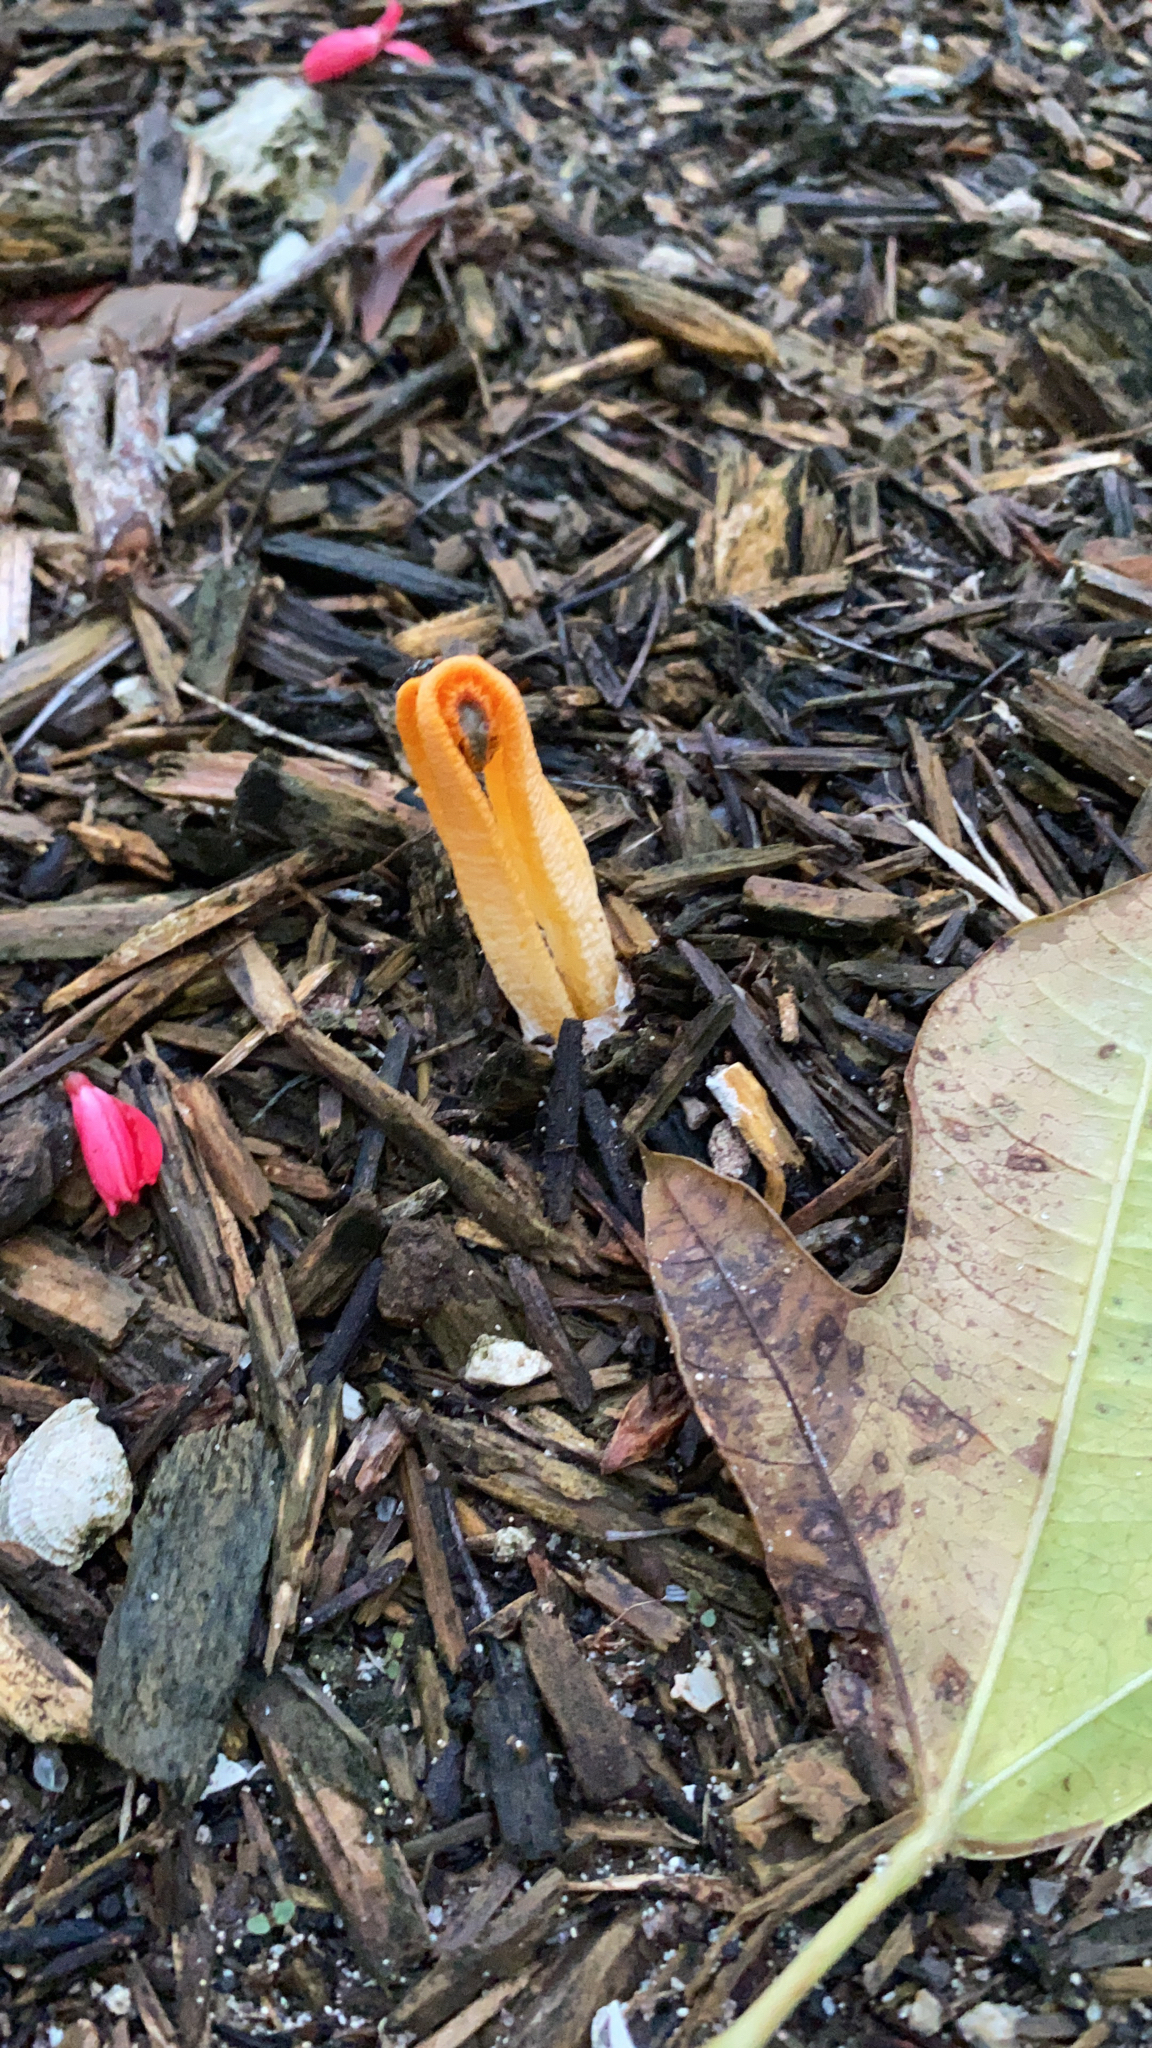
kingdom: Fungi
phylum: Basidiomycota
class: Agaricomycetes
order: Phallales
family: Phallaceae
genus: Laternea
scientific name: Laternea dringii
